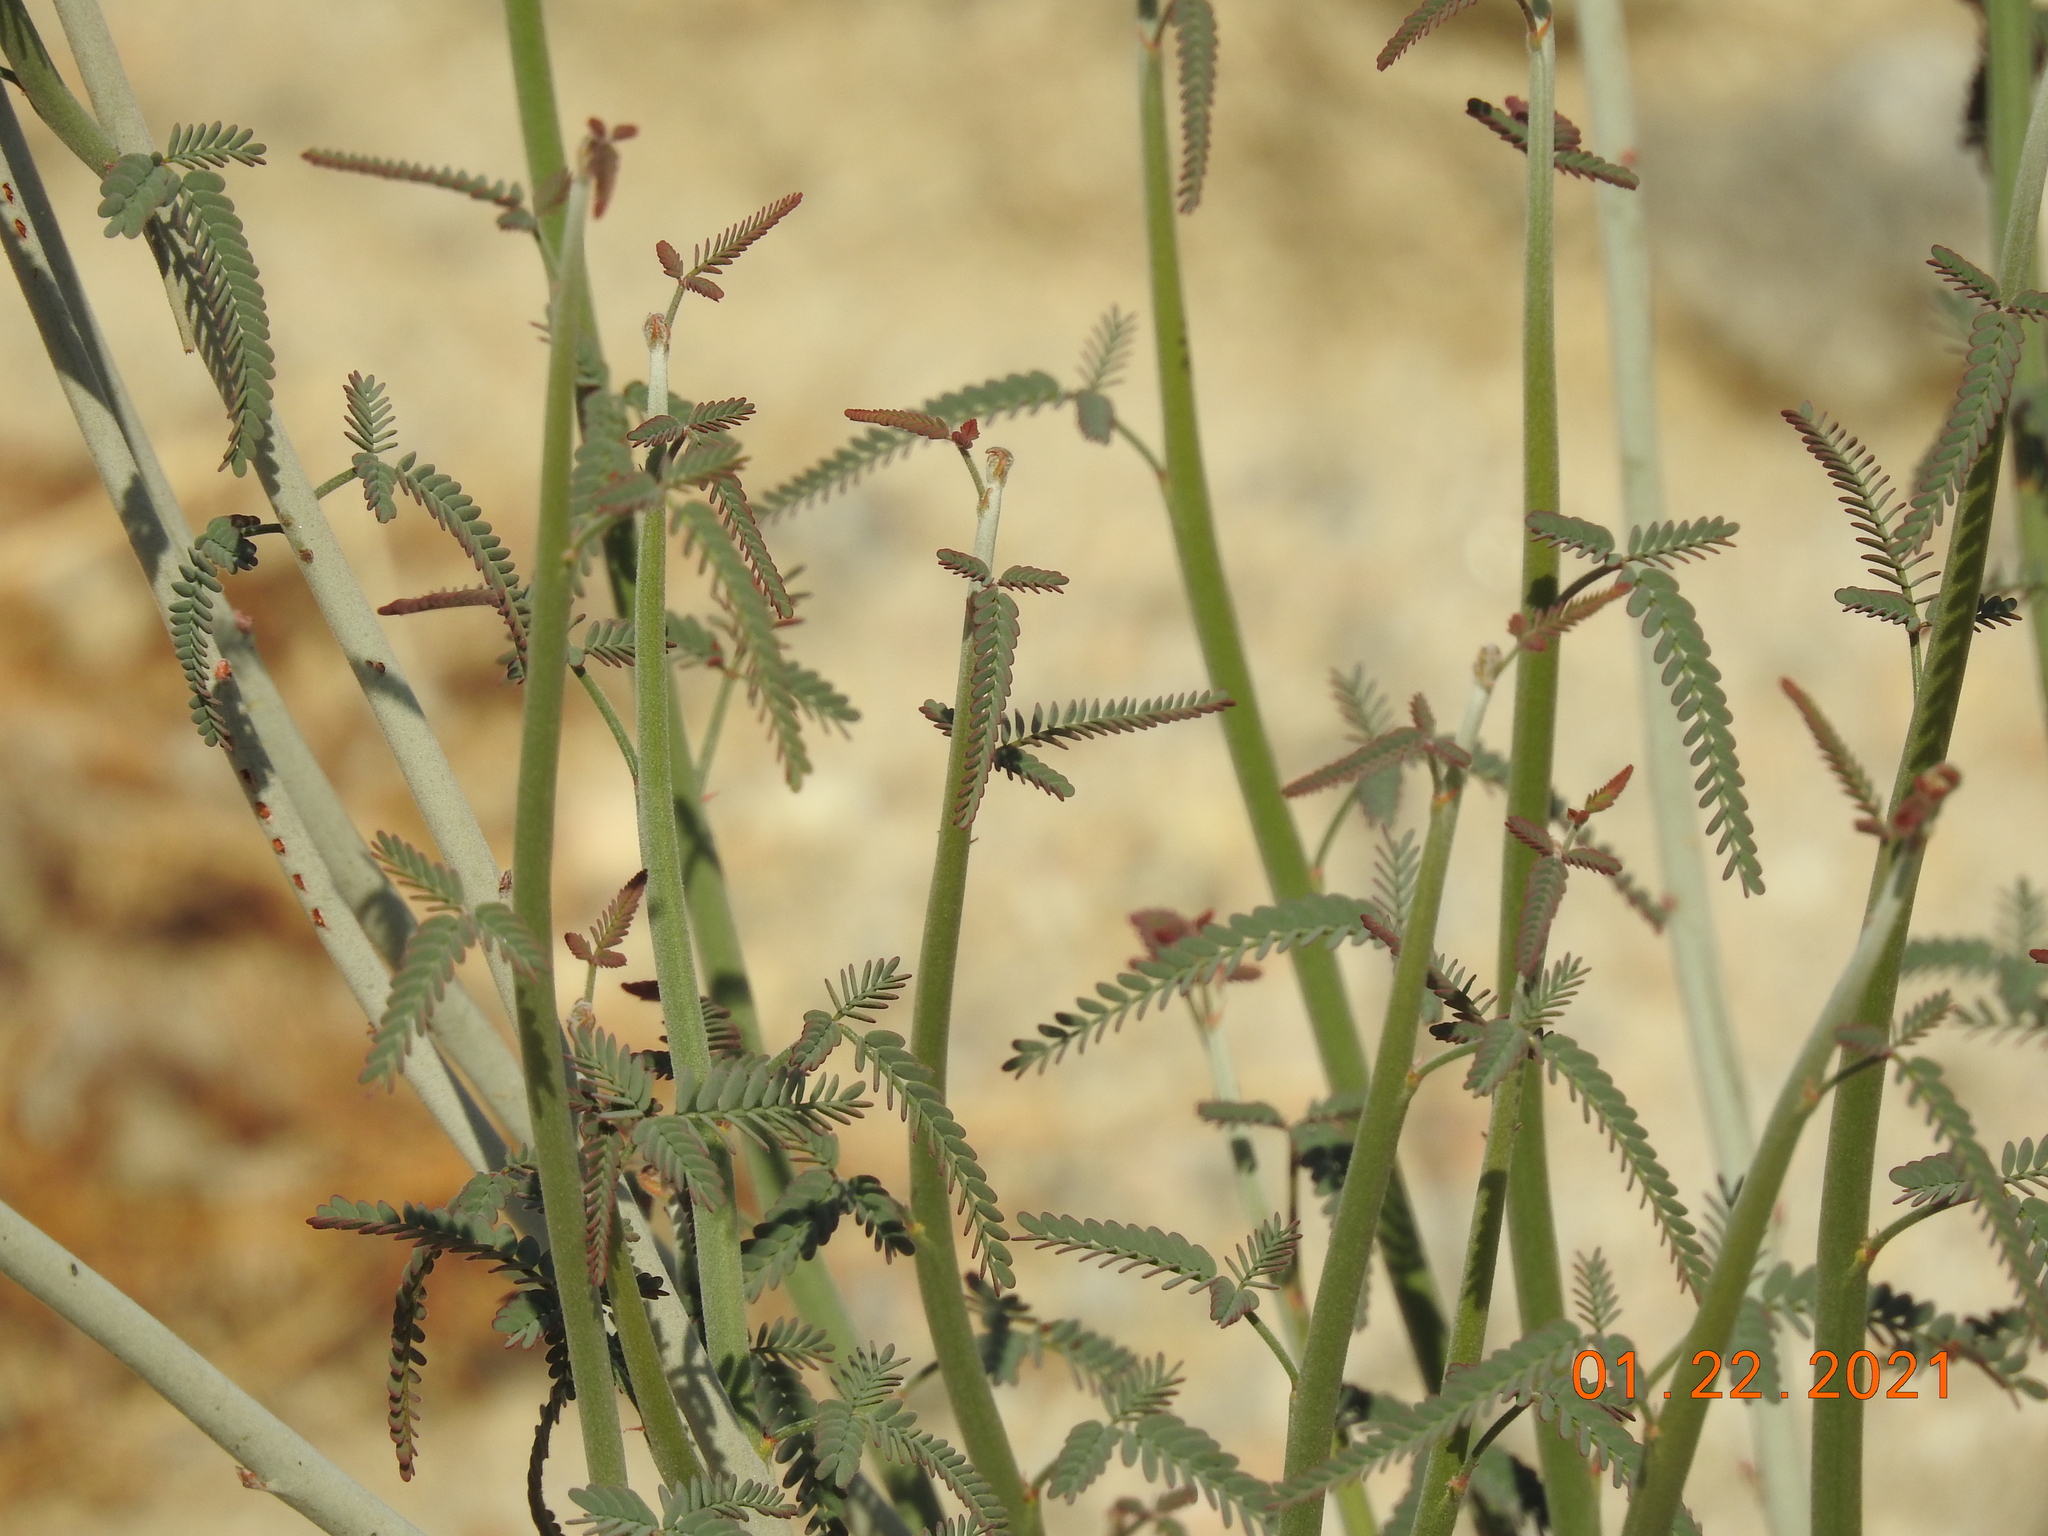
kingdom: Plantae
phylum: Tracheophyta
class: Magnoliopsida
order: Fabales
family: Fabaceae
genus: Hoffmannseggia
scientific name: Hoffmannseggia microphylla
